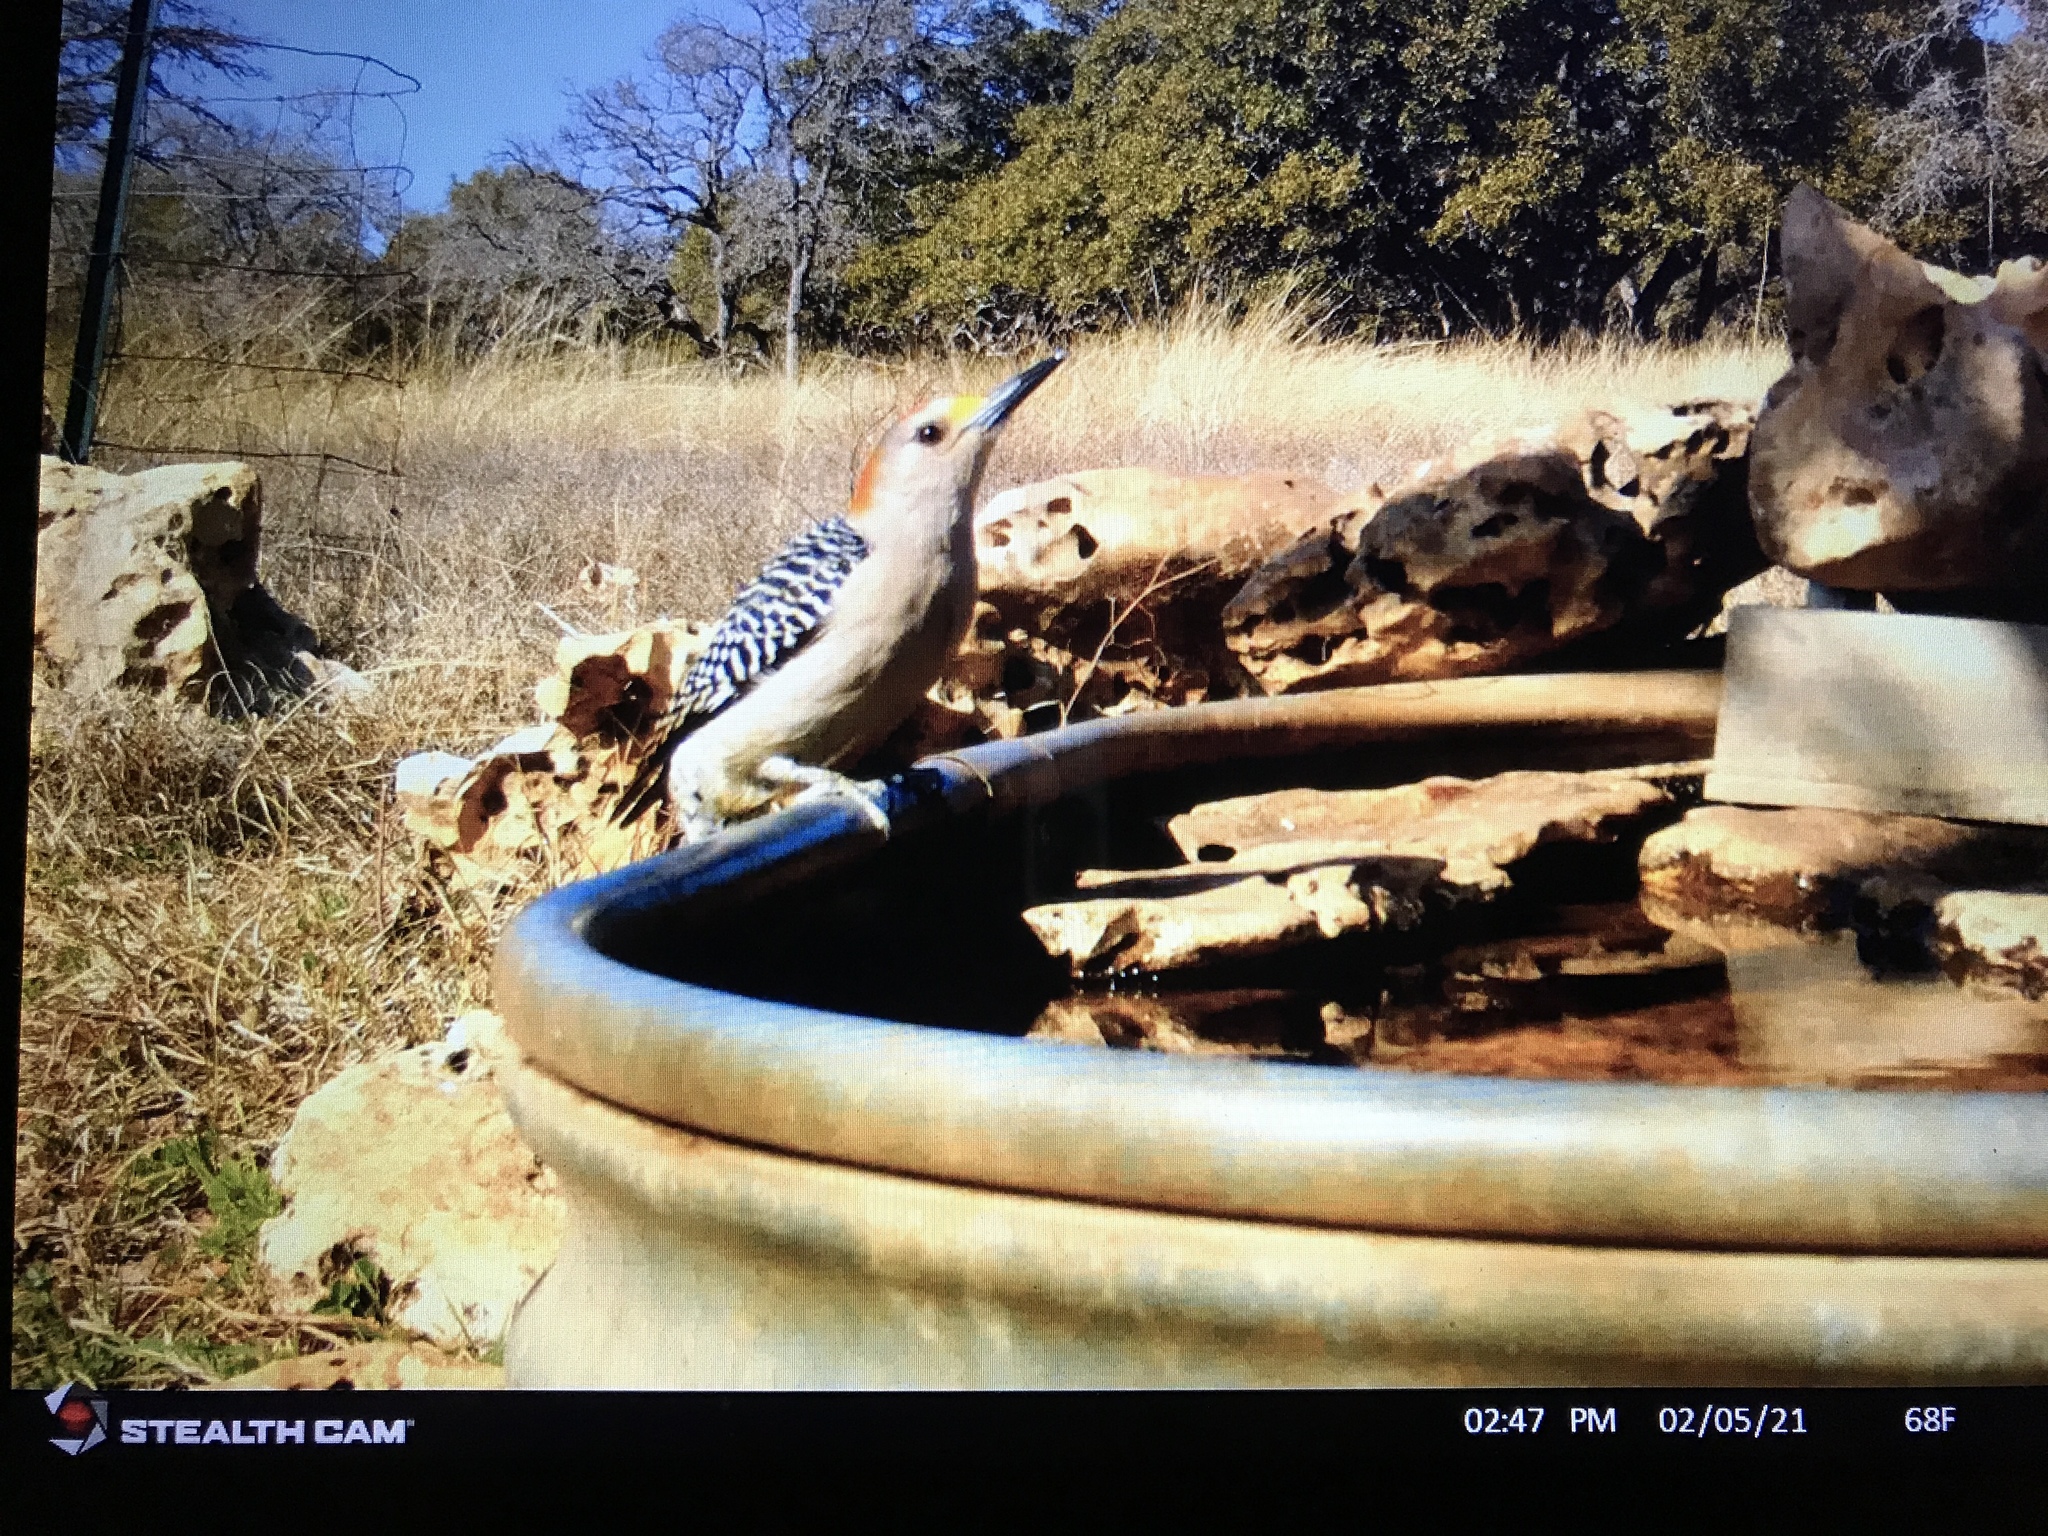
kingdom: Animalia
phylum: Chordata
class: Aves
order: Piciformes
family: Picidae
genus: Melanerpes
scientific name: Melanerpes aurifrons
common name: Golden-fronted woodpecker
